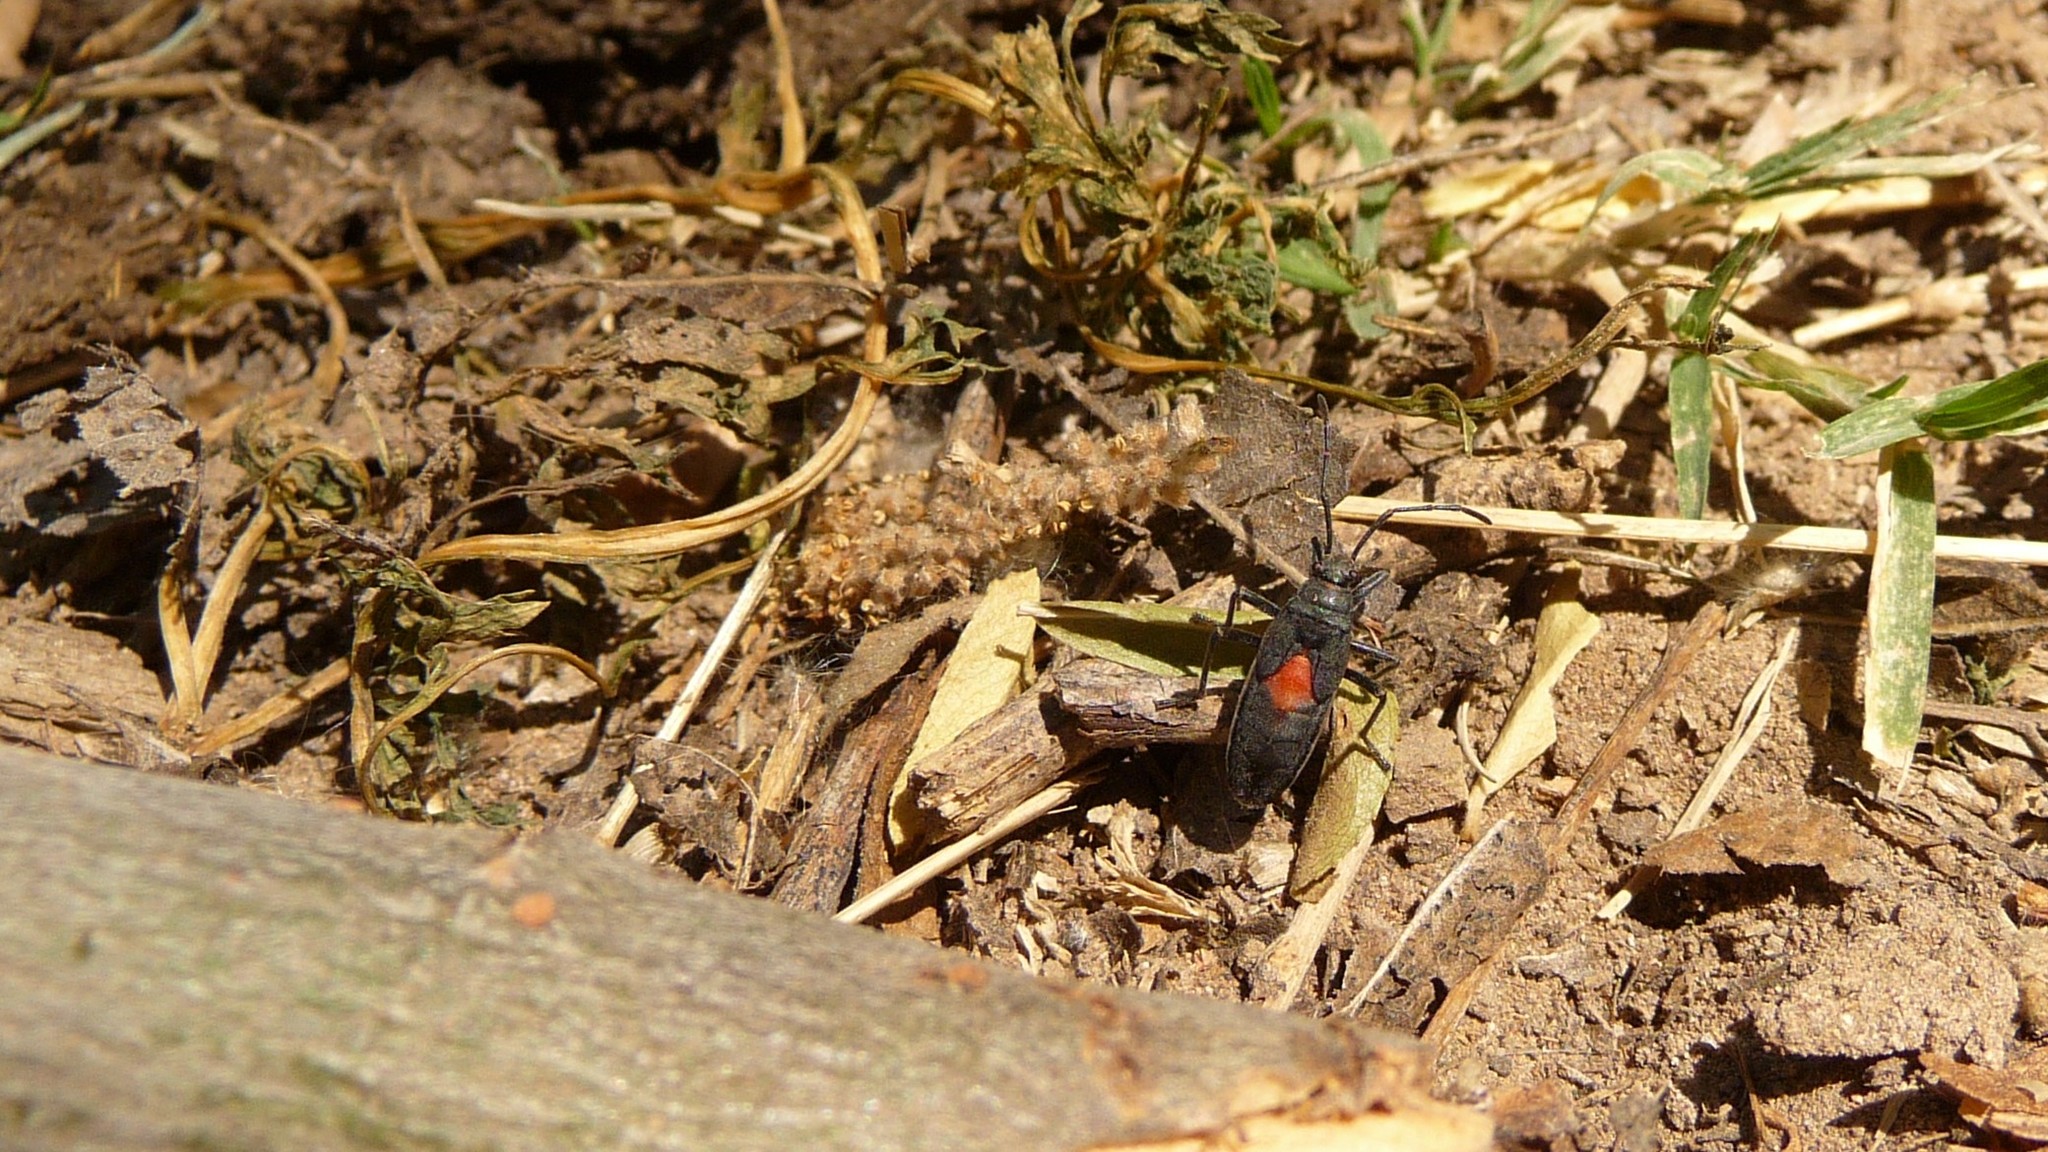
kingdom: Animalia
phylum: Arthropoda
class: Insecta
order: Hemiptera
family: Largidae
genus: Stenomacra
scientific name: Stenomacra marginella
